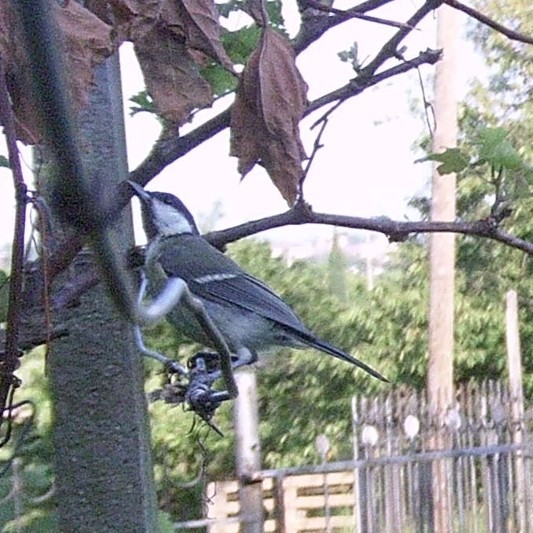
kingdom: Animalia
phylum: Chordata
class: Aves
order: Passeriformes
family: Paridae
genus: Parus
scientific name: Parus major
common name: Great tit
